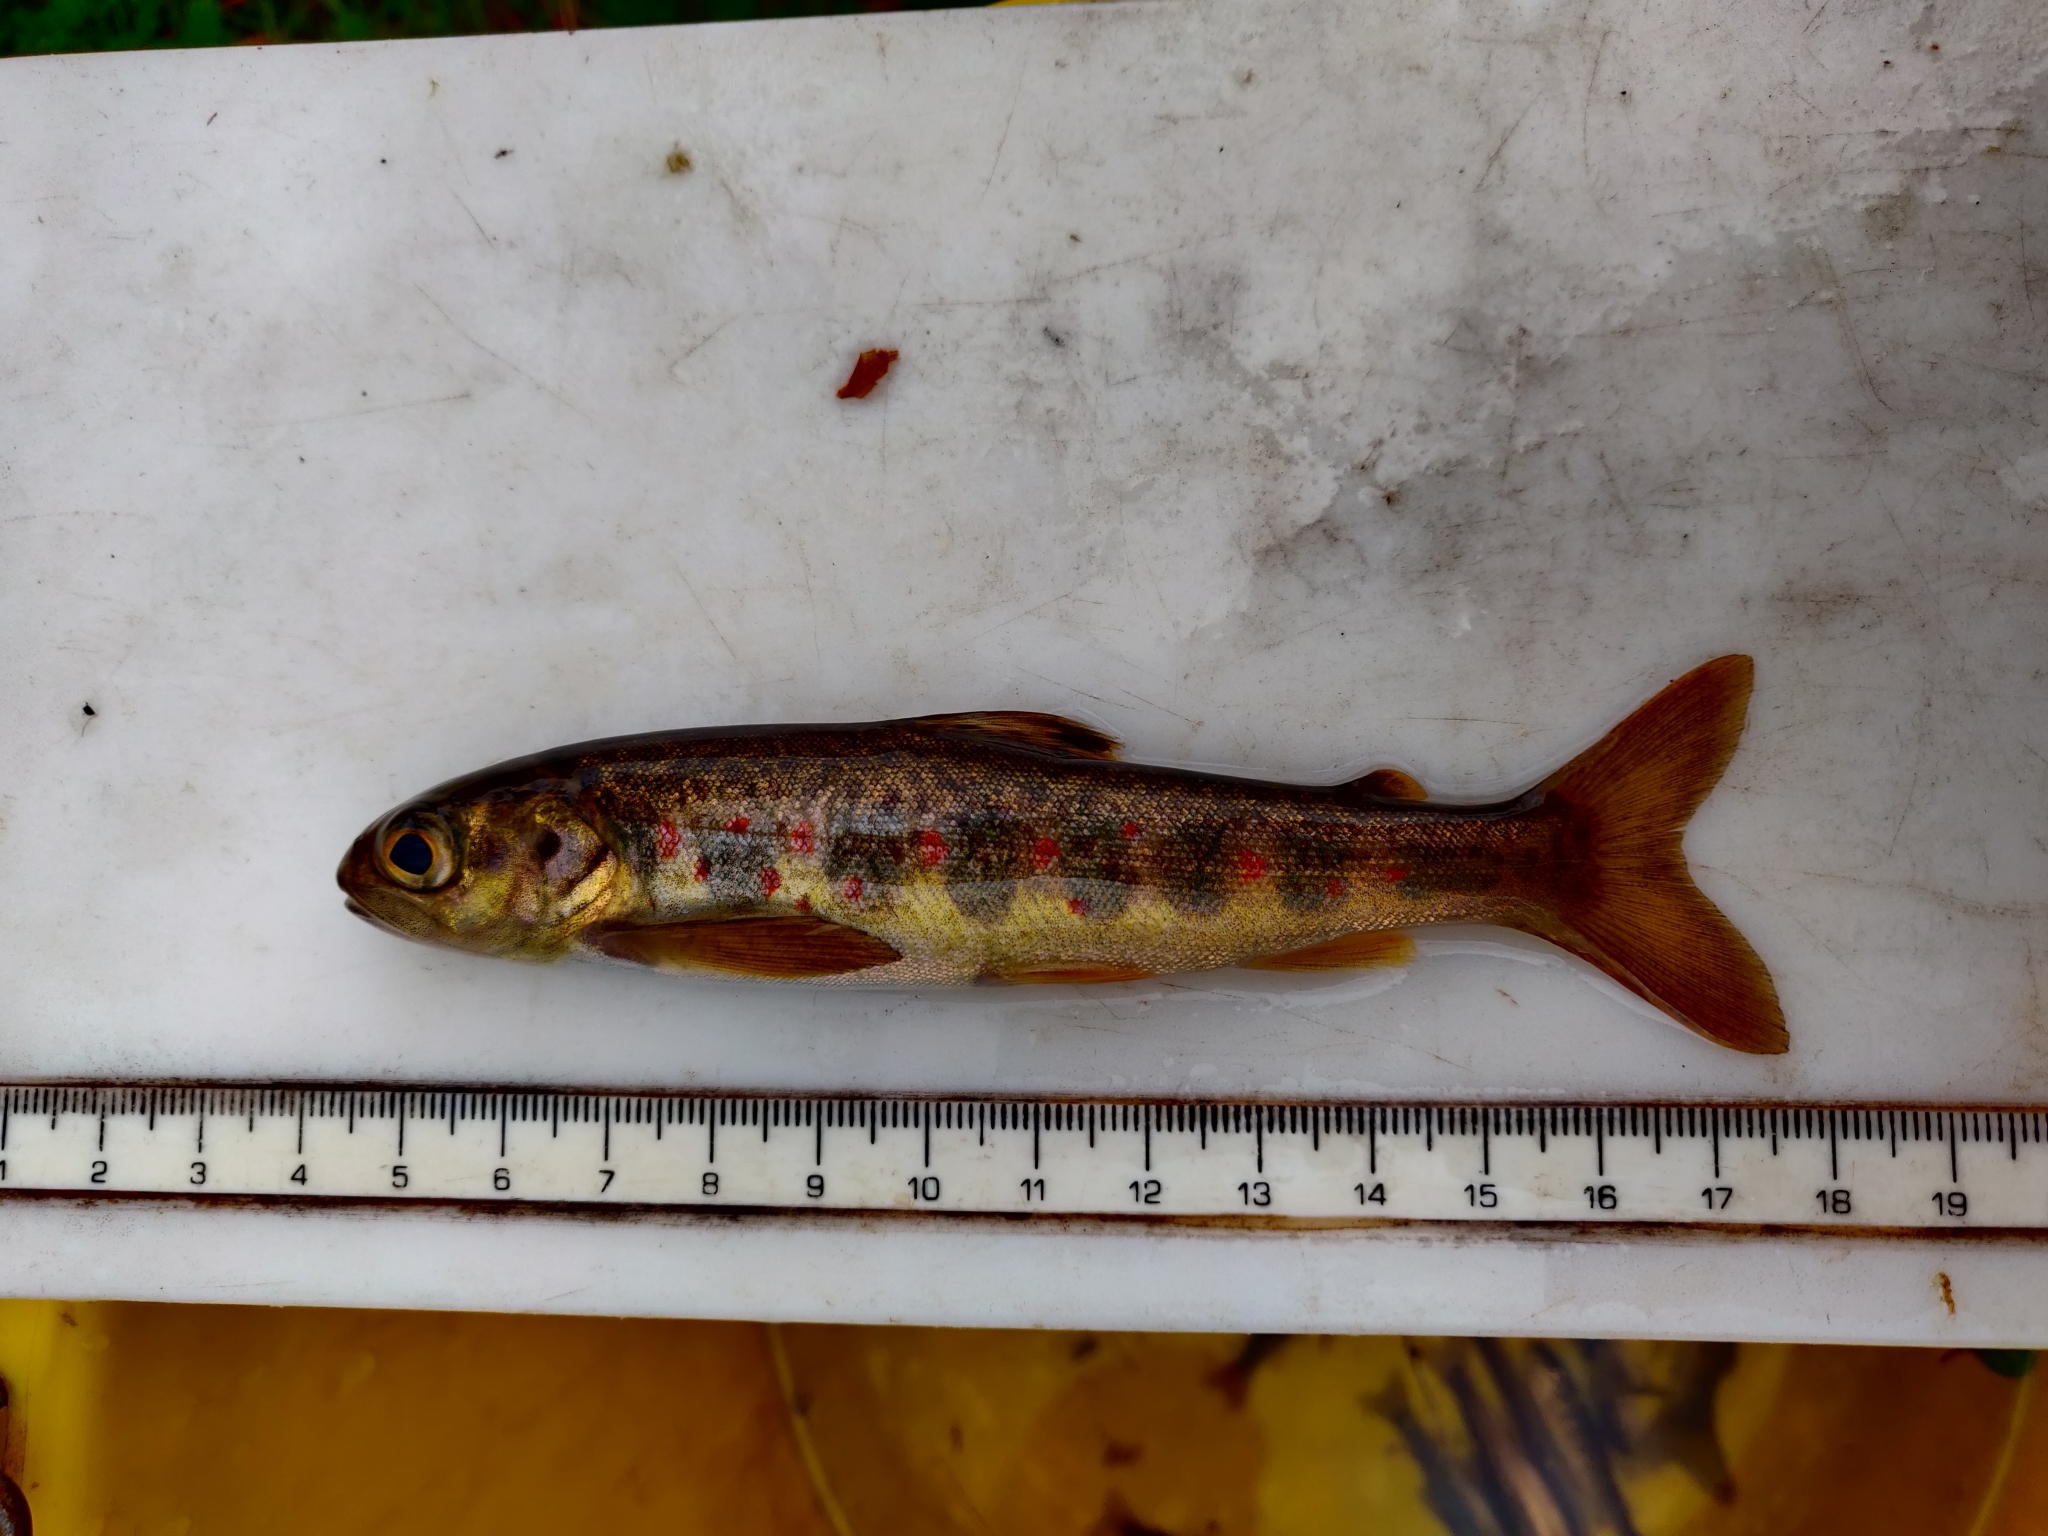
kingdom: Animalia
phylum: Chordata
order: Salmoniformes
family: Salmonidae
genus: Salmo
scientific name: Salmo salar
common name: Atlantic salmon
